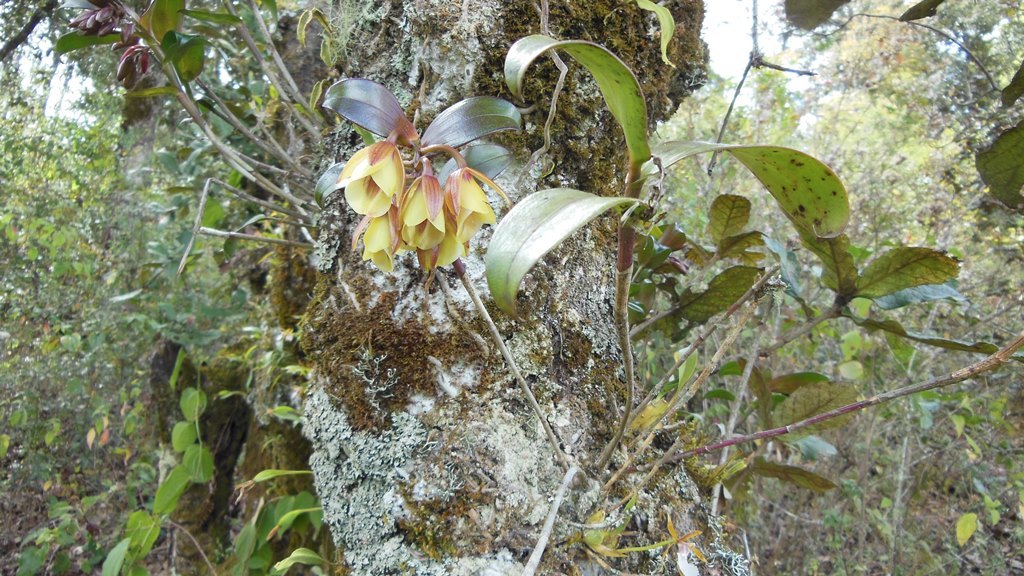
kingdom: Plantae
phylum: Tracheophyta
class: Liliopsida
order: Asparagales
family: Orchidaceae
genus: Epidendrum
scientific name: Epidendrum eximium
